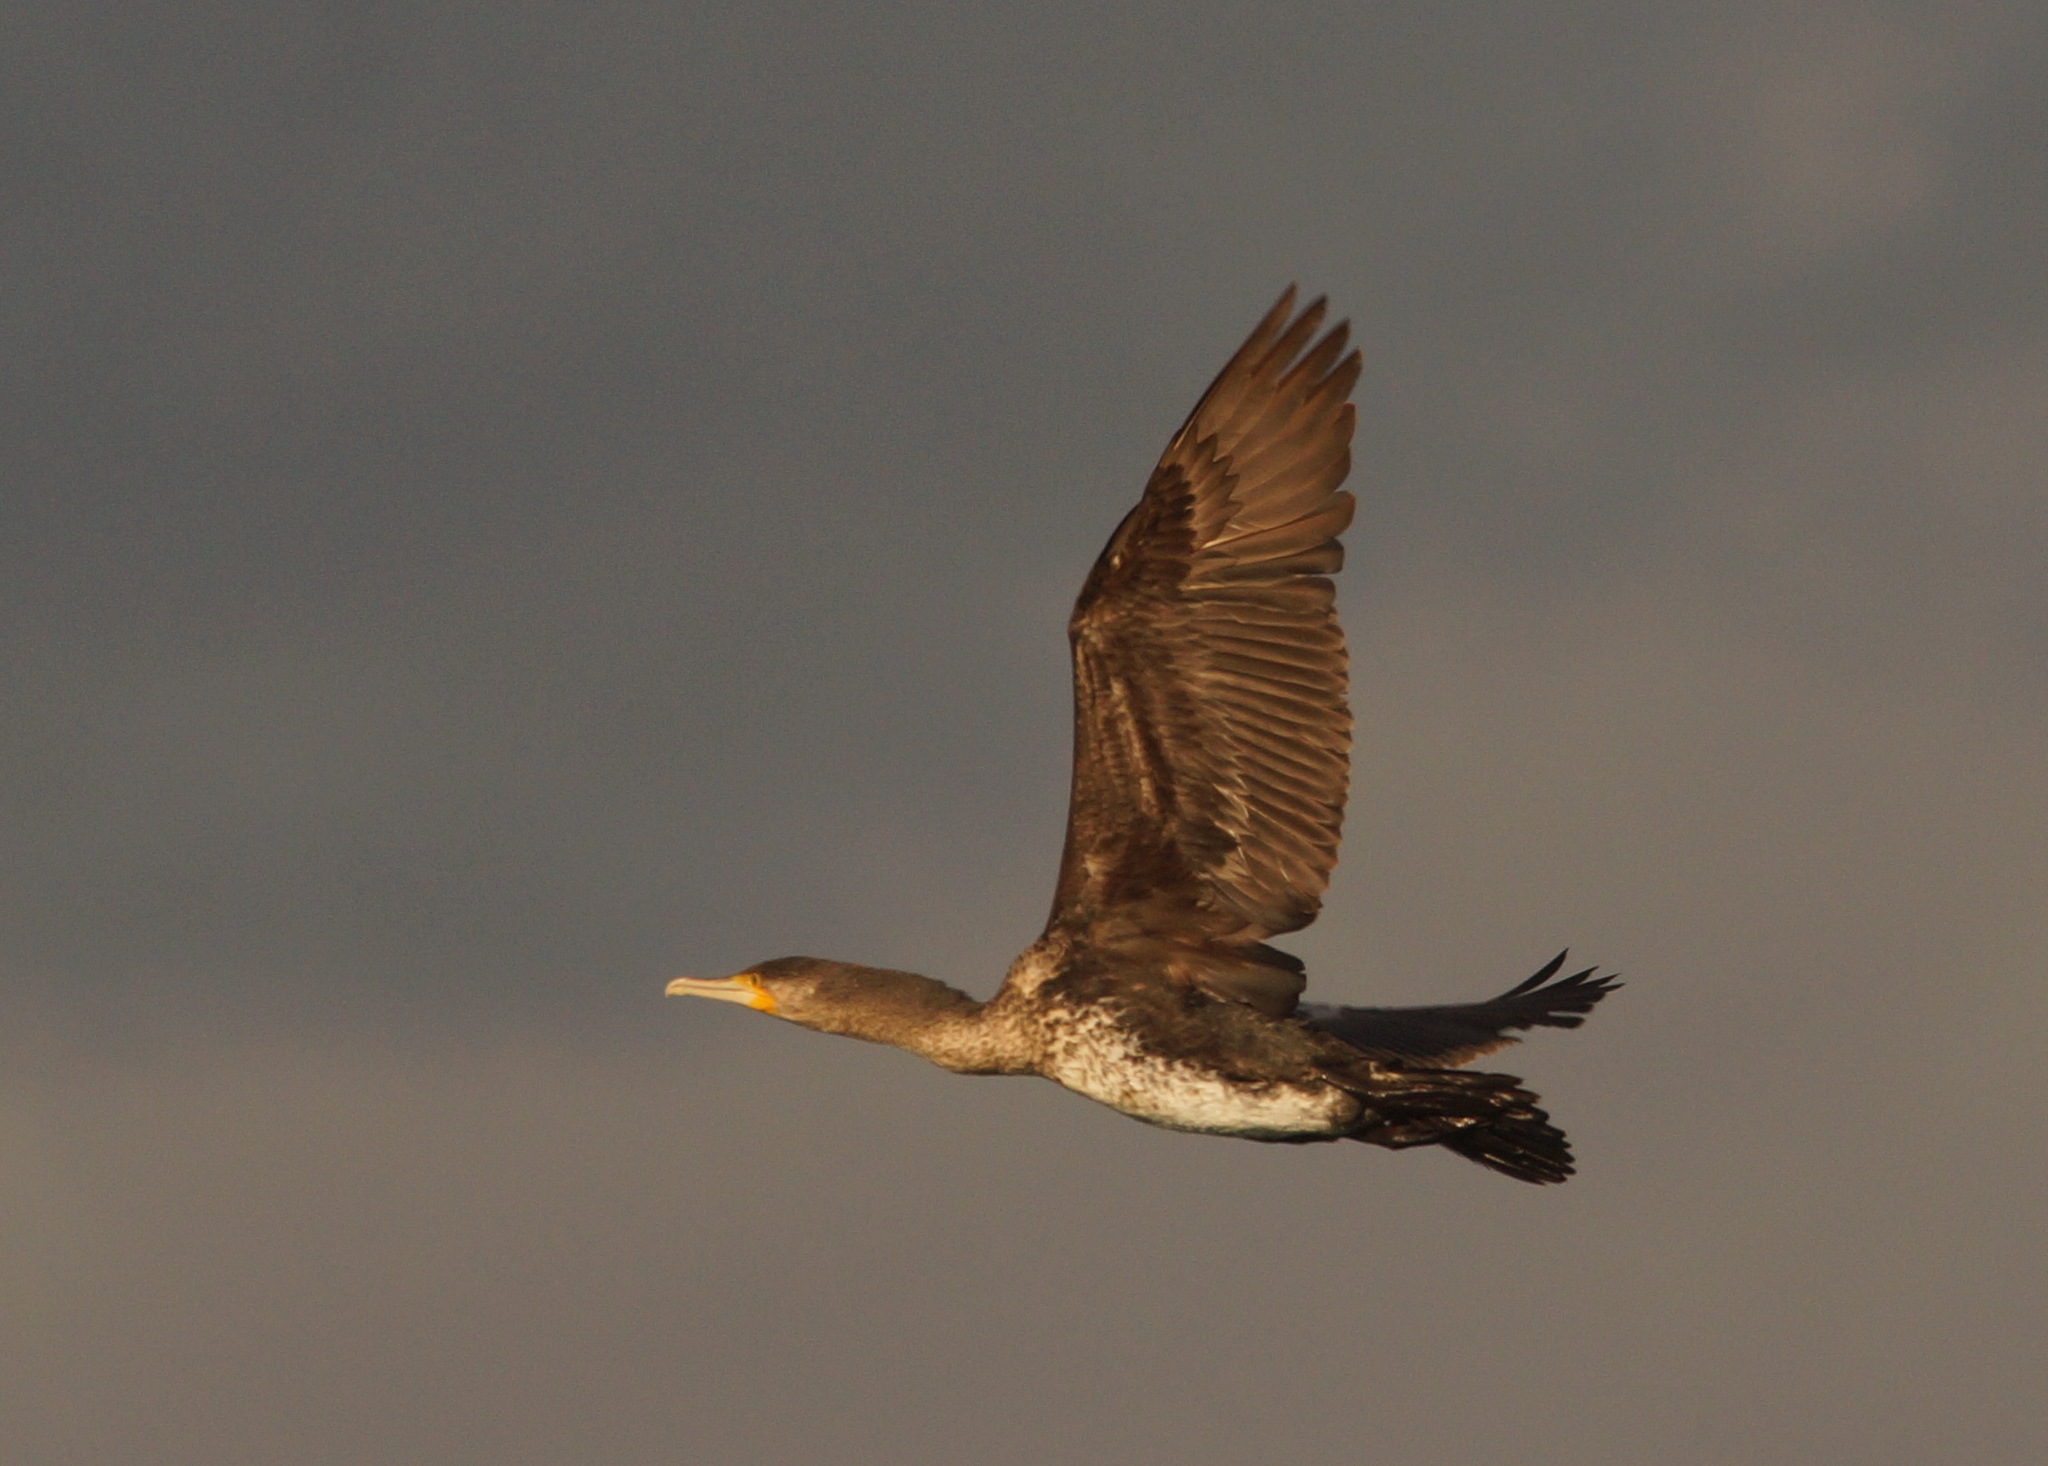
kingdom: Animalia
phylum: Chordata
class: Aves
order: Suliformes
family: Phalacrocoracidae
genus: Phalacrocorax
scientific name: Phalacrocorax carbo
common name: Great cormorant
